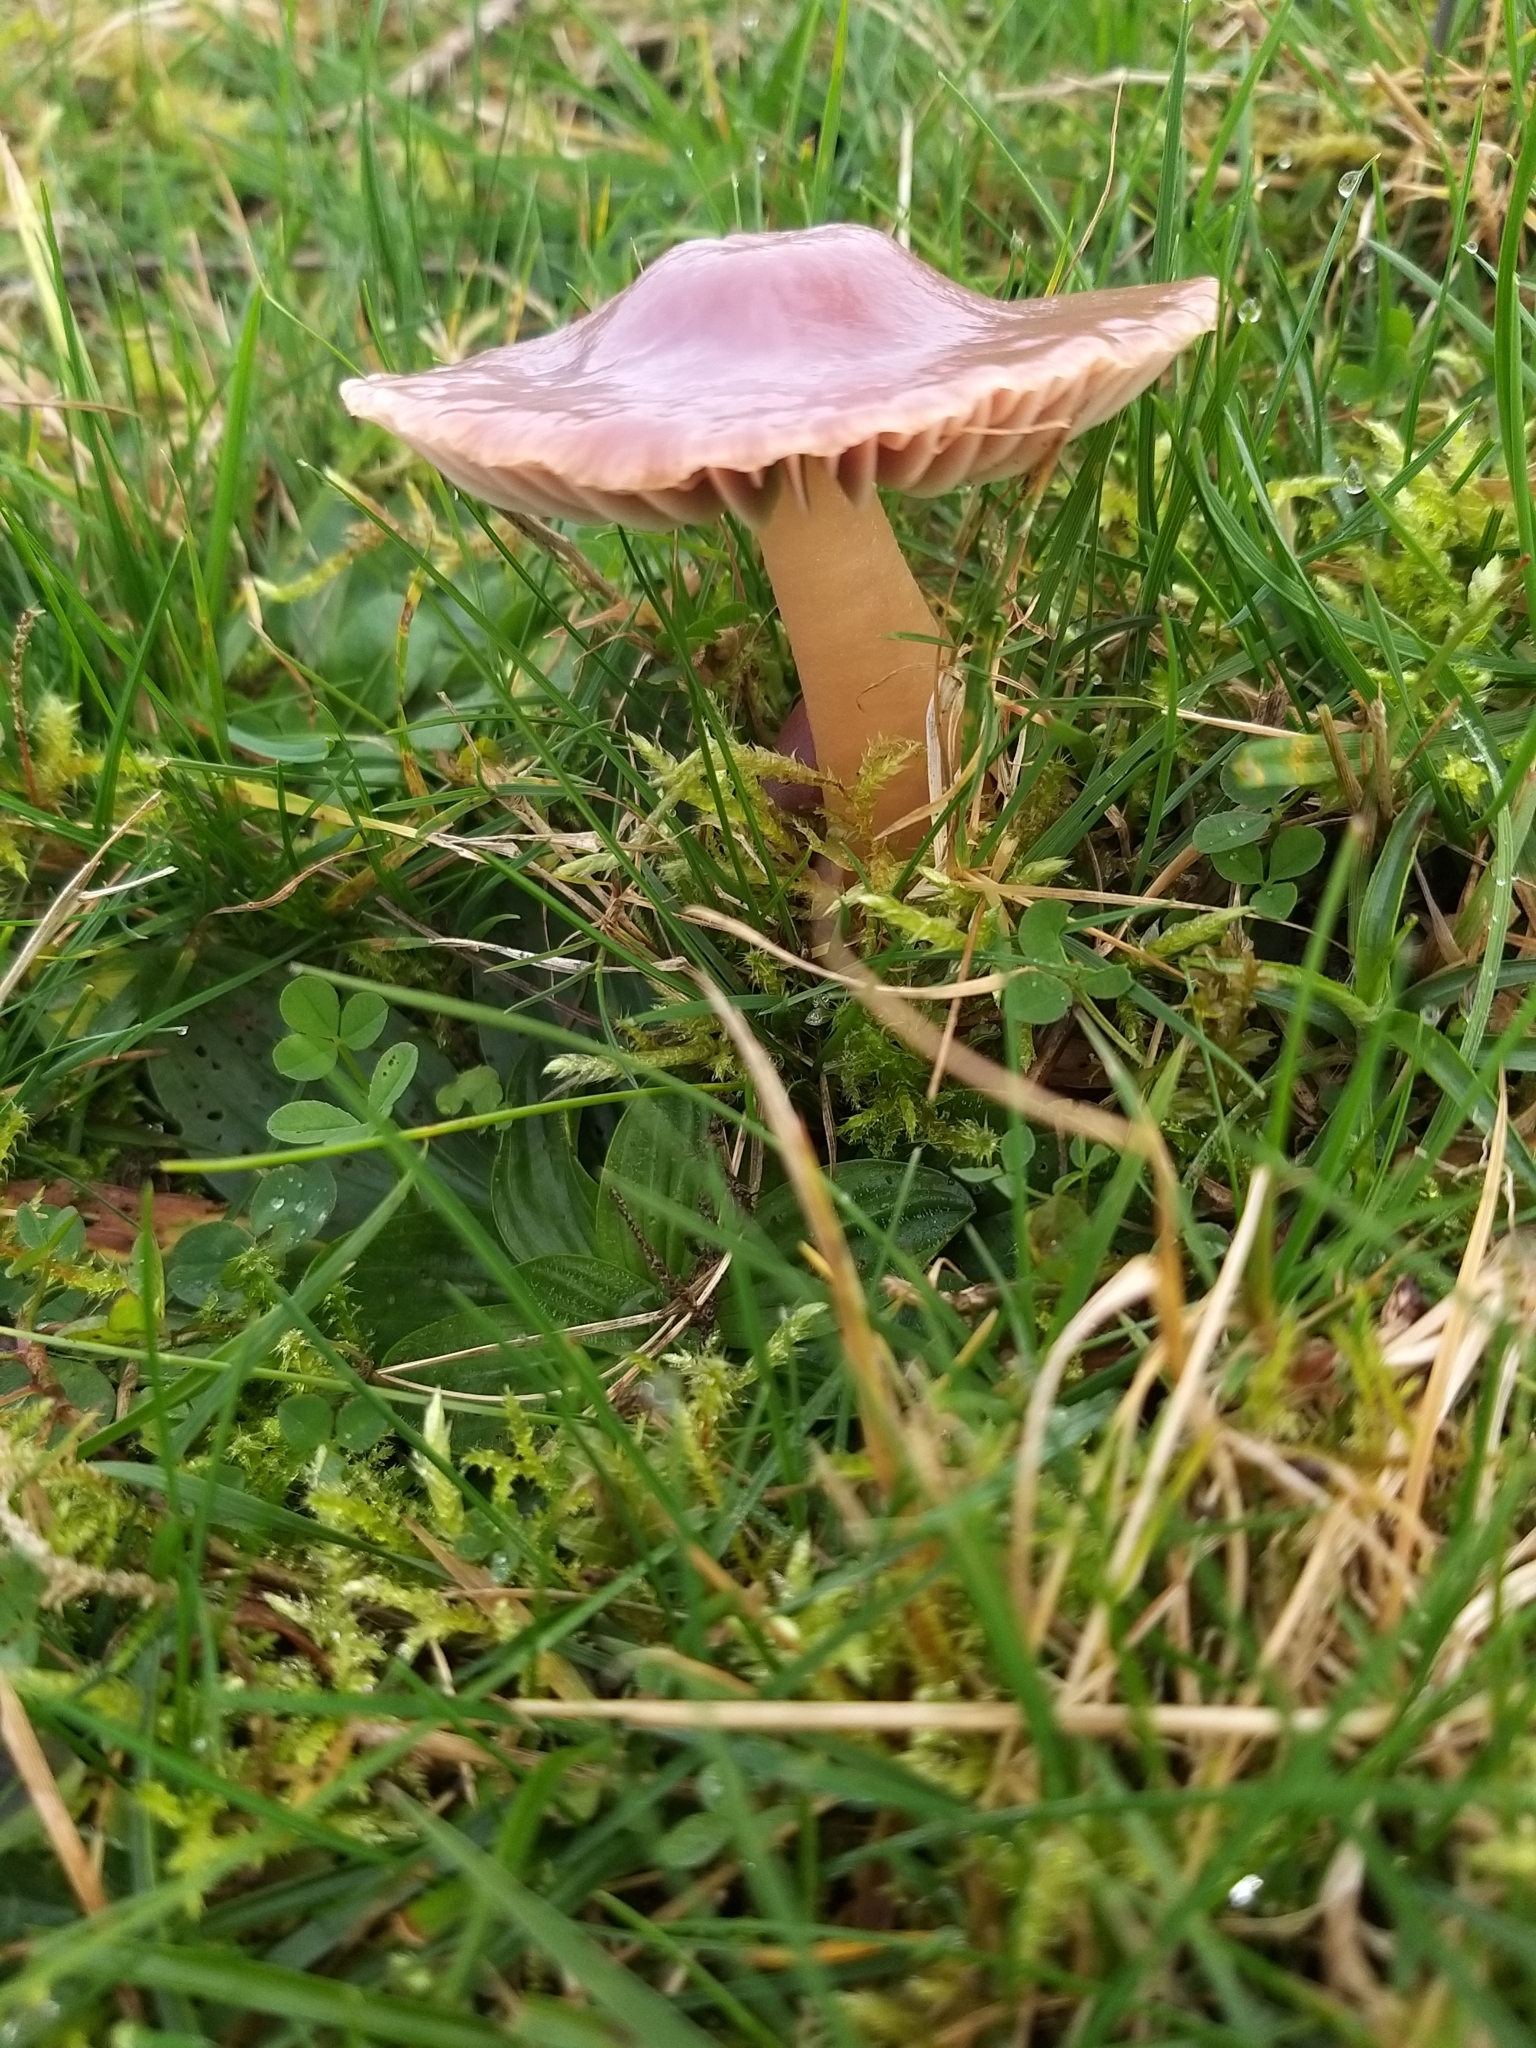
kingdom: Fungi
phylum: Basidiomycota
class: Agaricomycetes
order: Agaricales
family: Hygrophoraceae
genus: Gliophorus
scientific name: Gliophorus reginae
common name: Jubilee waxcap
